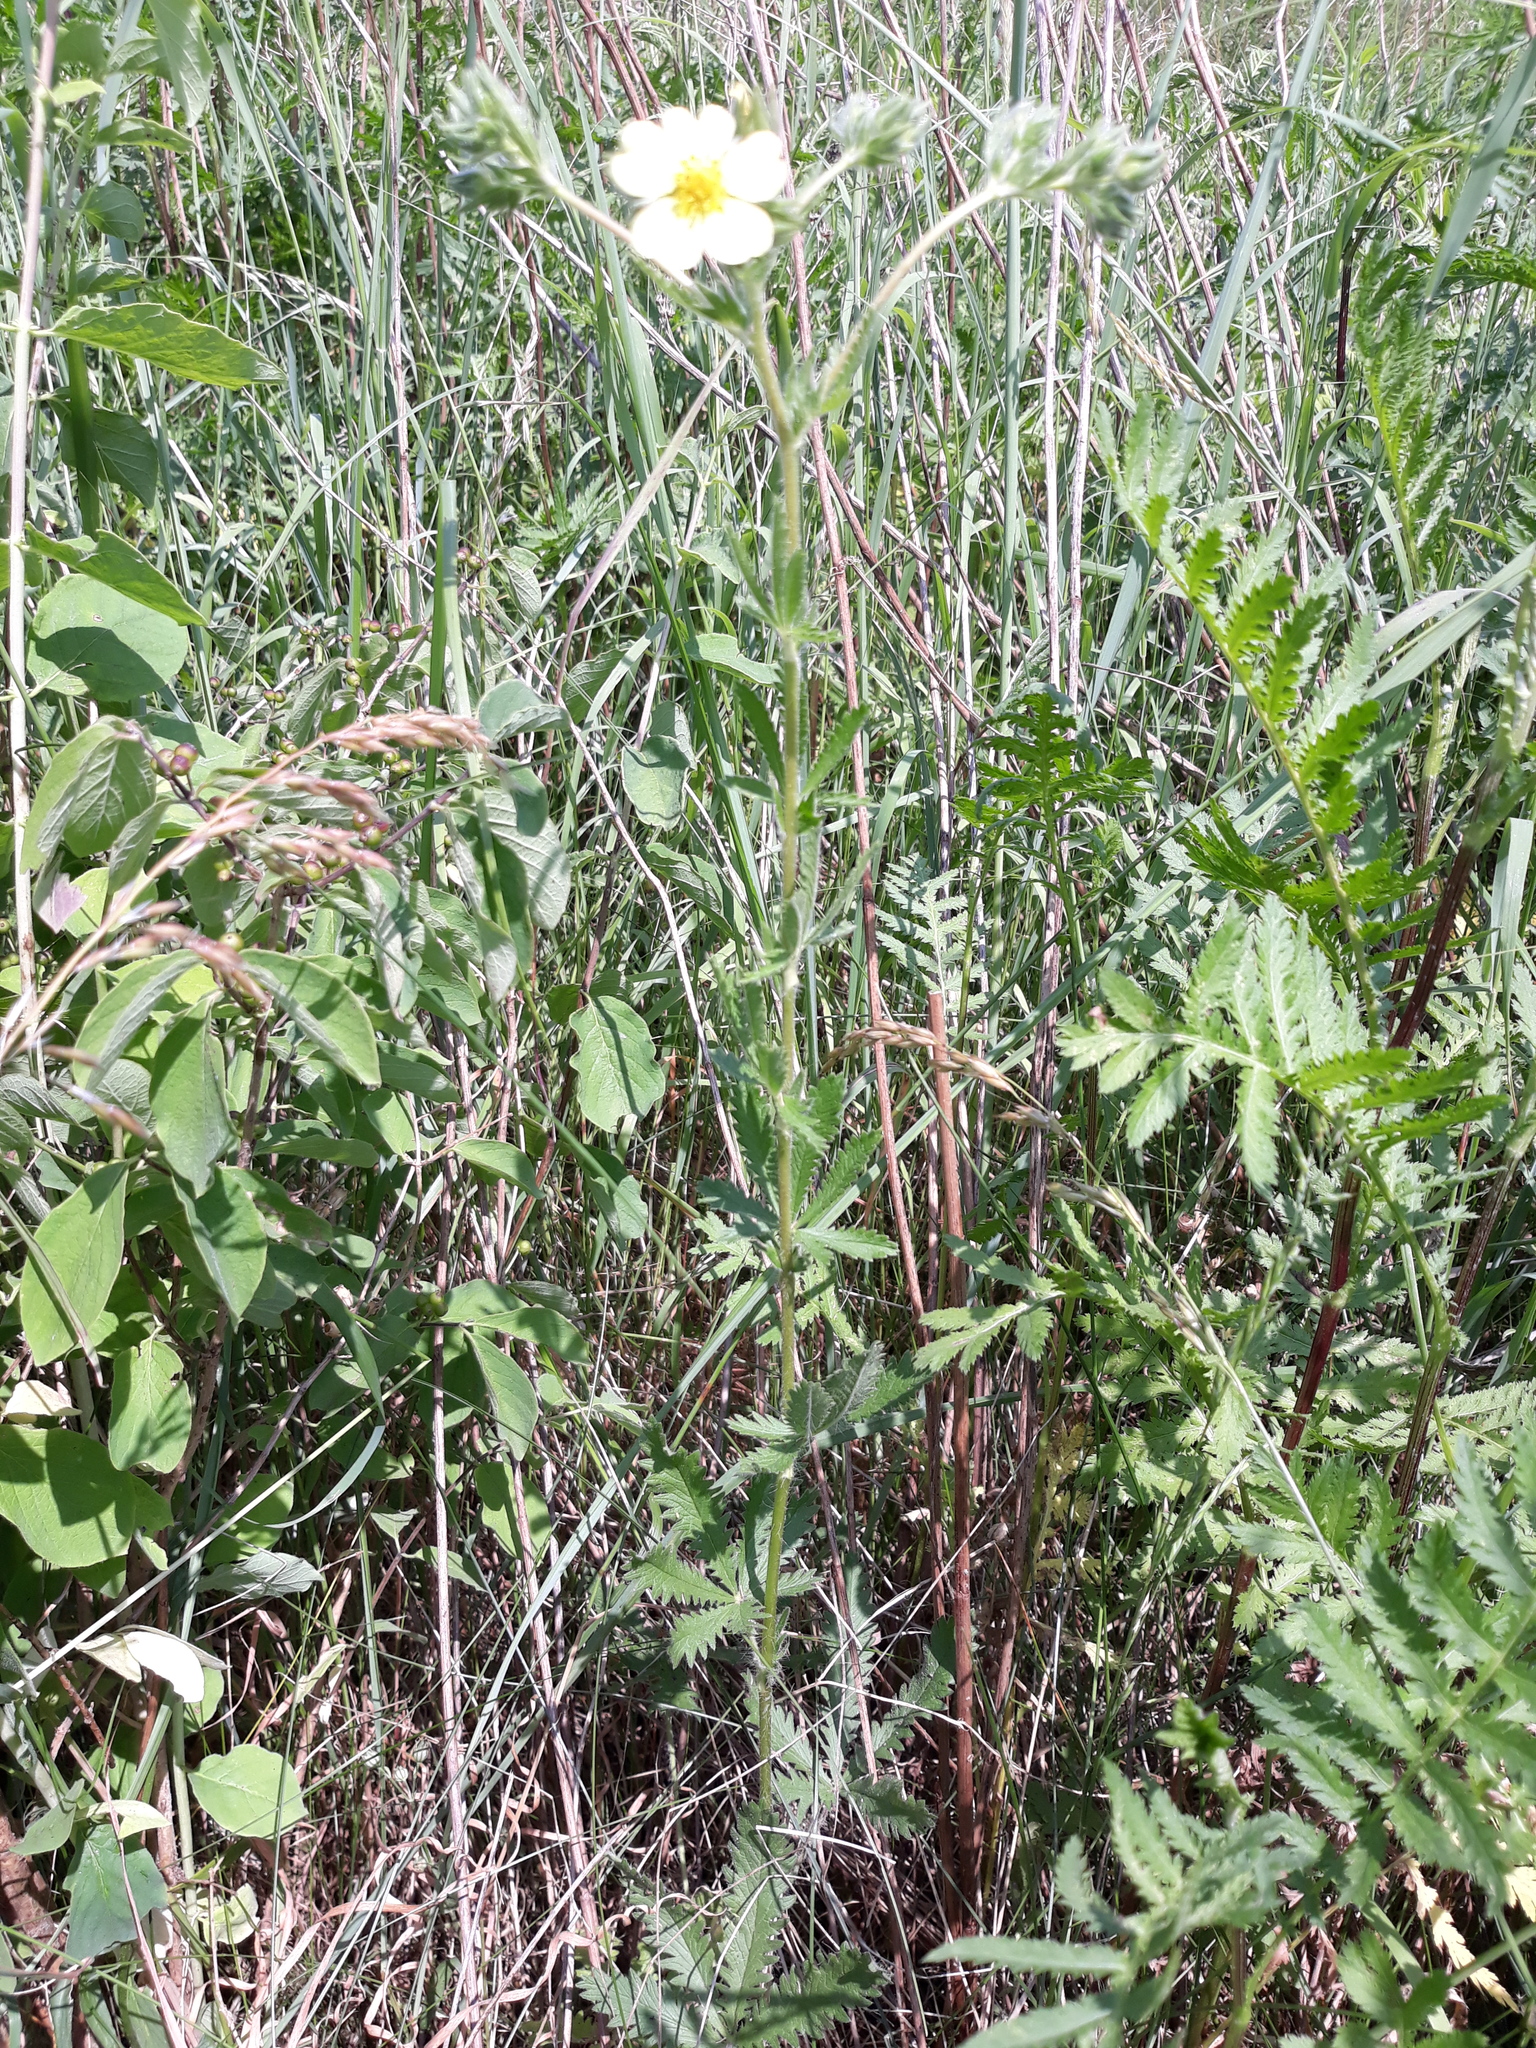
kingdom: Plantae
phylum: Tracheophyta
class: Magnoliopsida
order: Rosales
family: Rosaceae
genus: Potentilla
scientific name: Potentilla recta
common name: Sulphur cinquefoil
